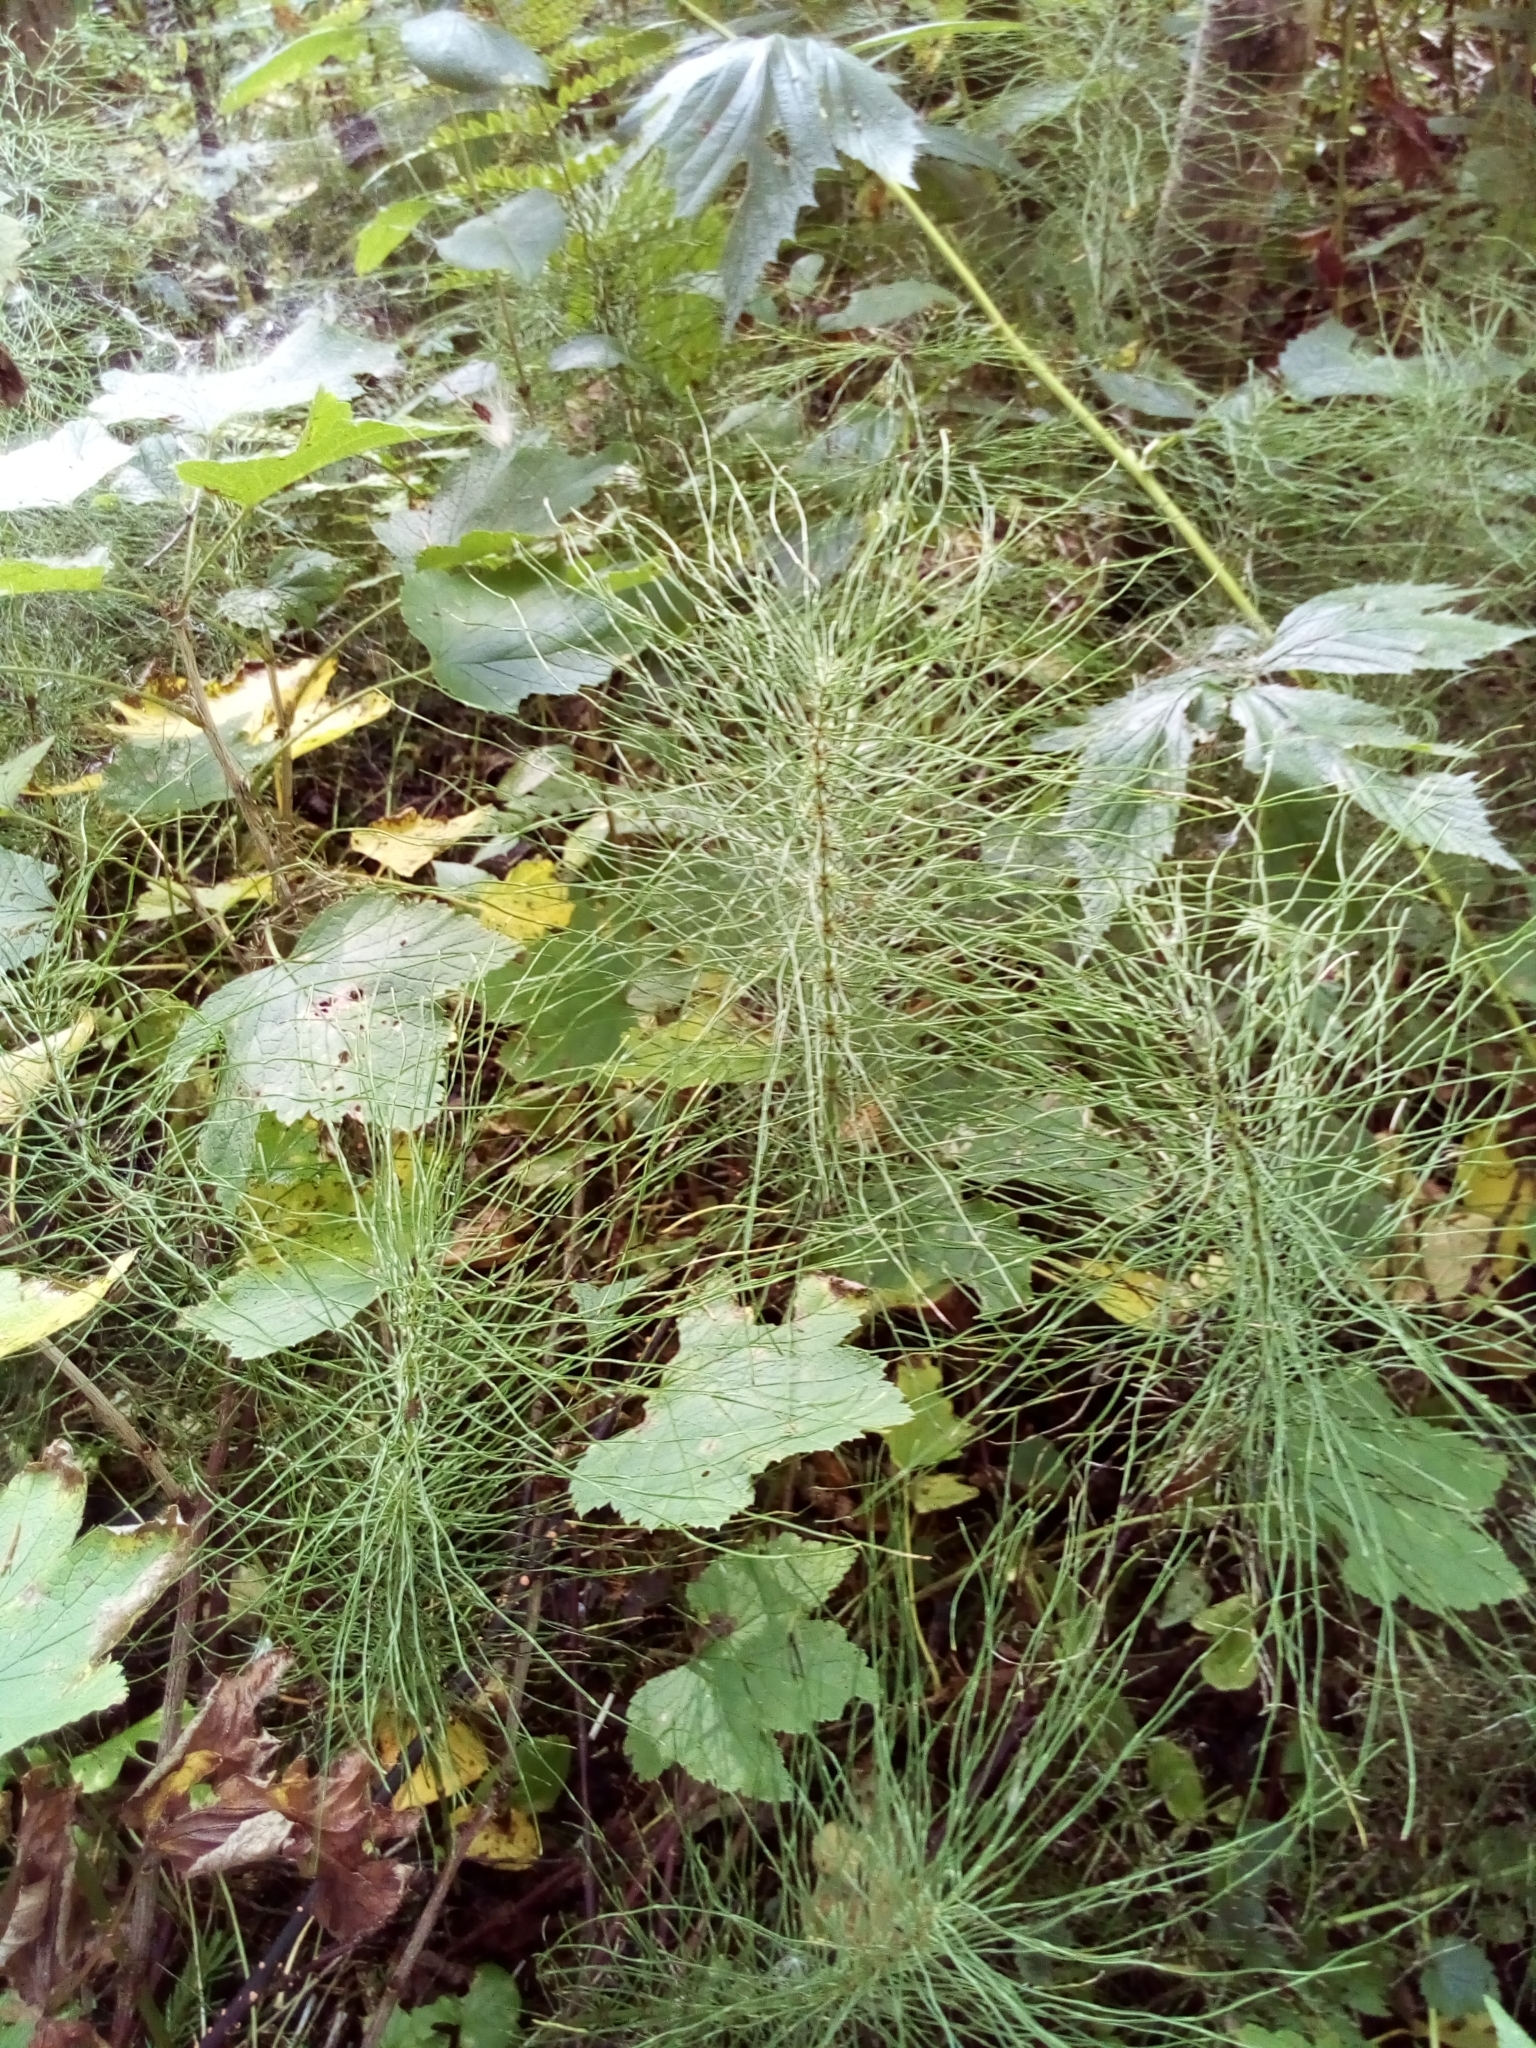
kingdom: Plantae
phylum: Tracheophyta
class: Polypodiopsida
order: Equisetales
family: Equisetaceae
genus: Equisetum
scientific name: Equisetum pratense
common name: Meadow horsetail
